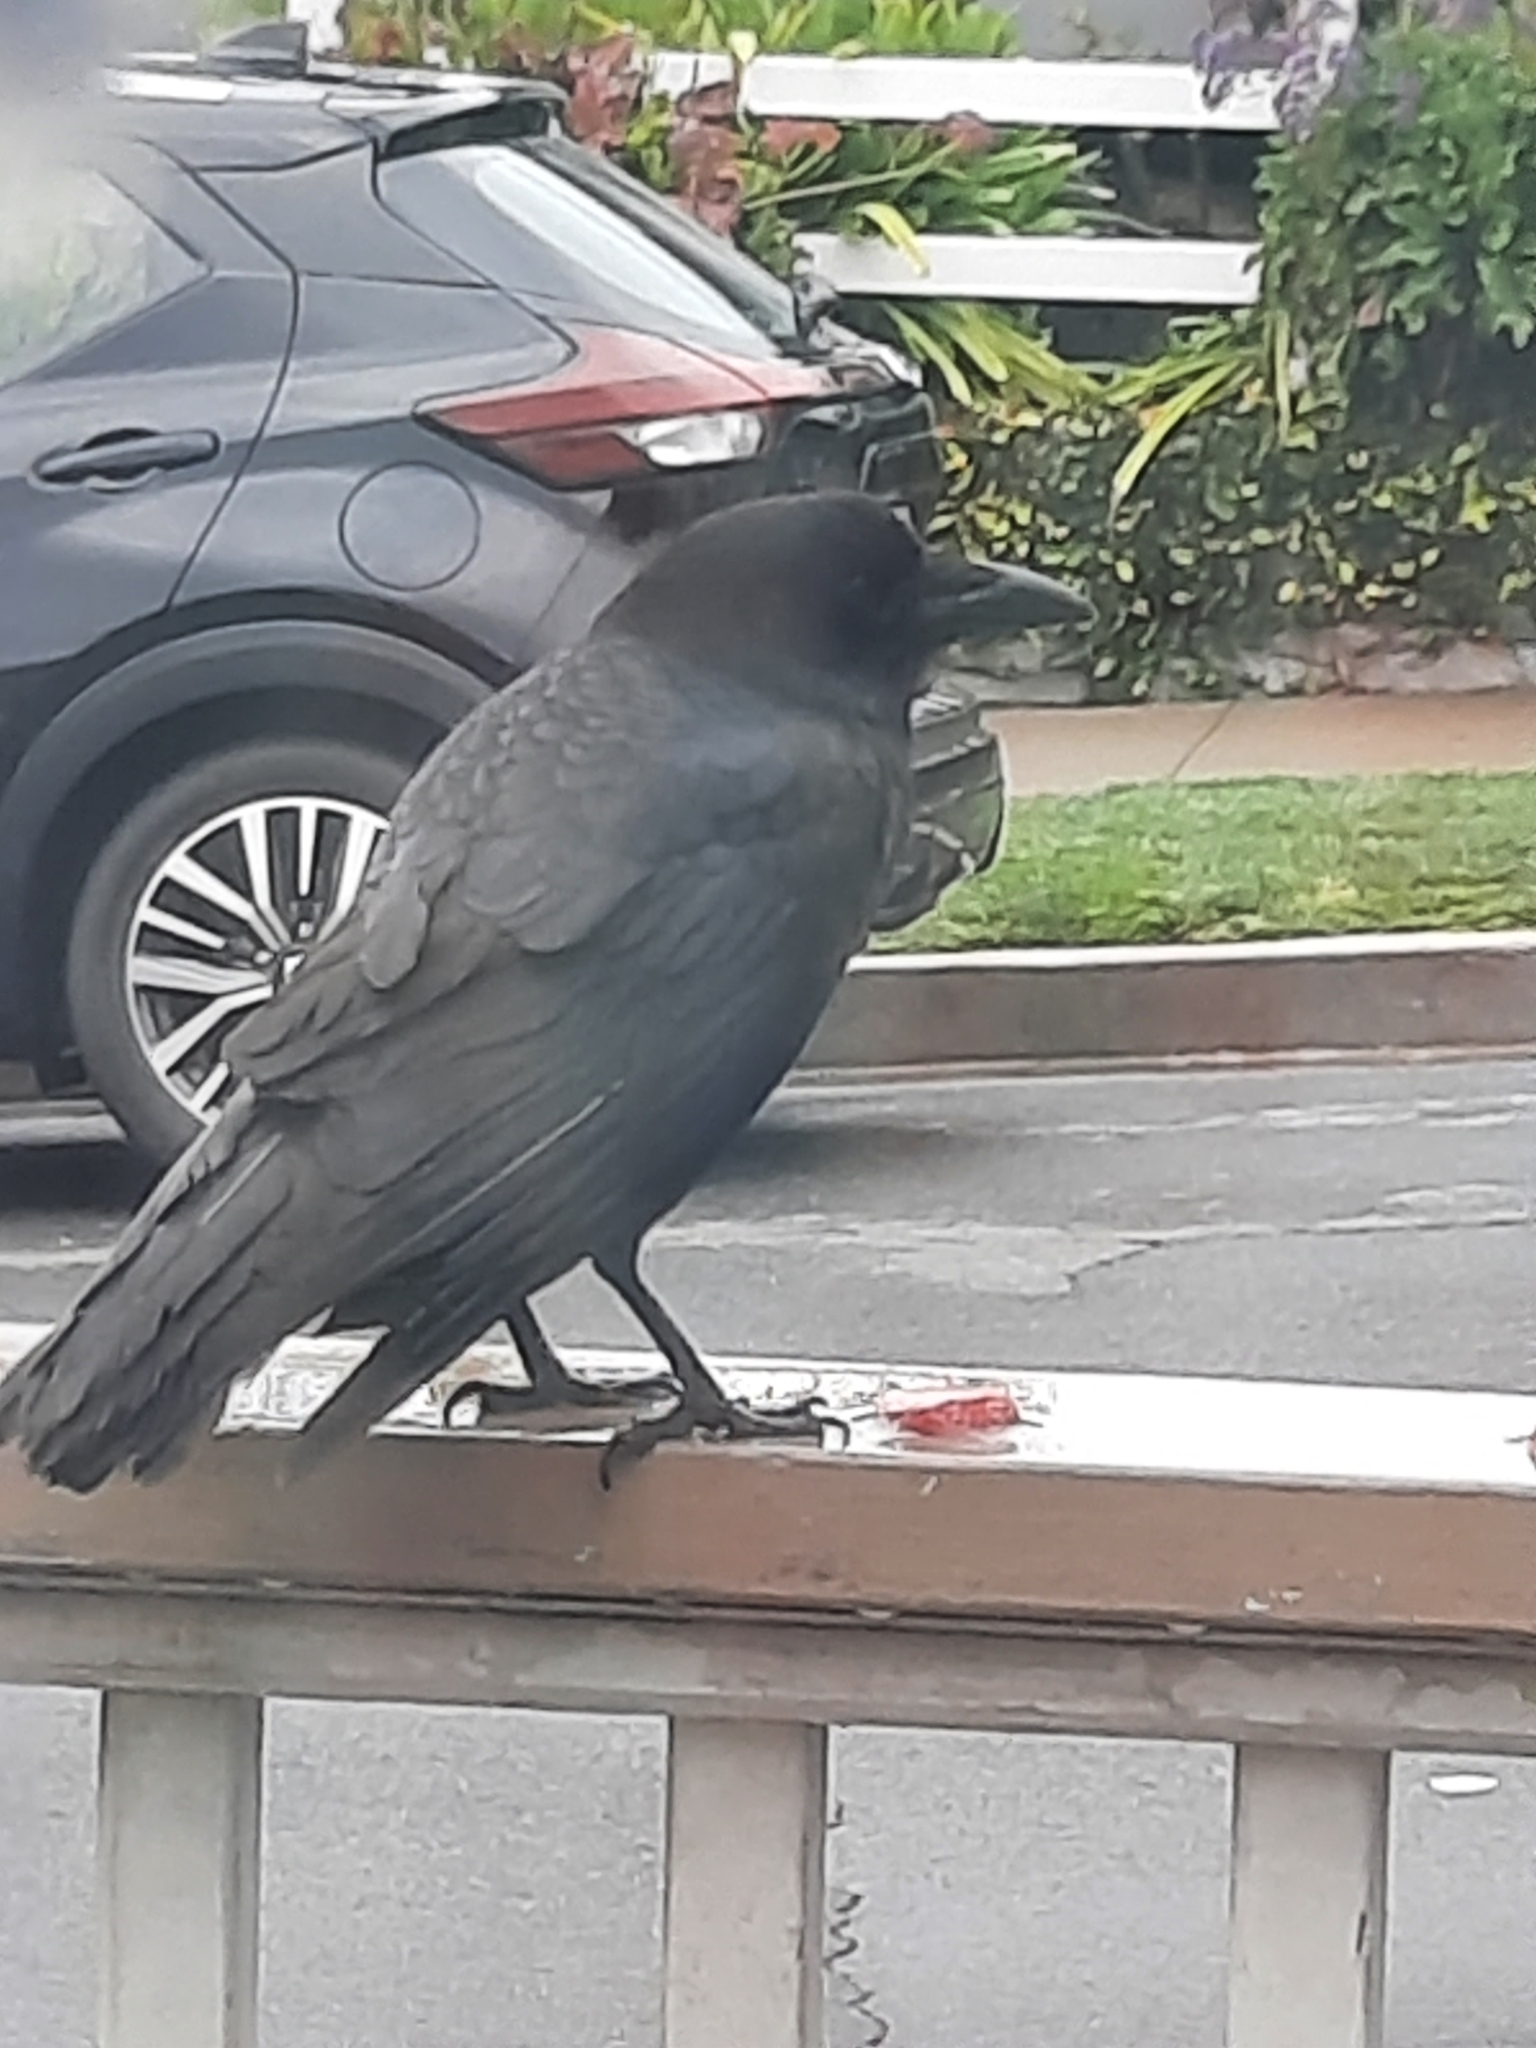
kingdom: Animalia
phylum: Chordata
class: Aves
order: Passeriformes
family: Corvidae
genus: Corvus
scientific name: Corvus brachyrhynchos
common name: American crow
